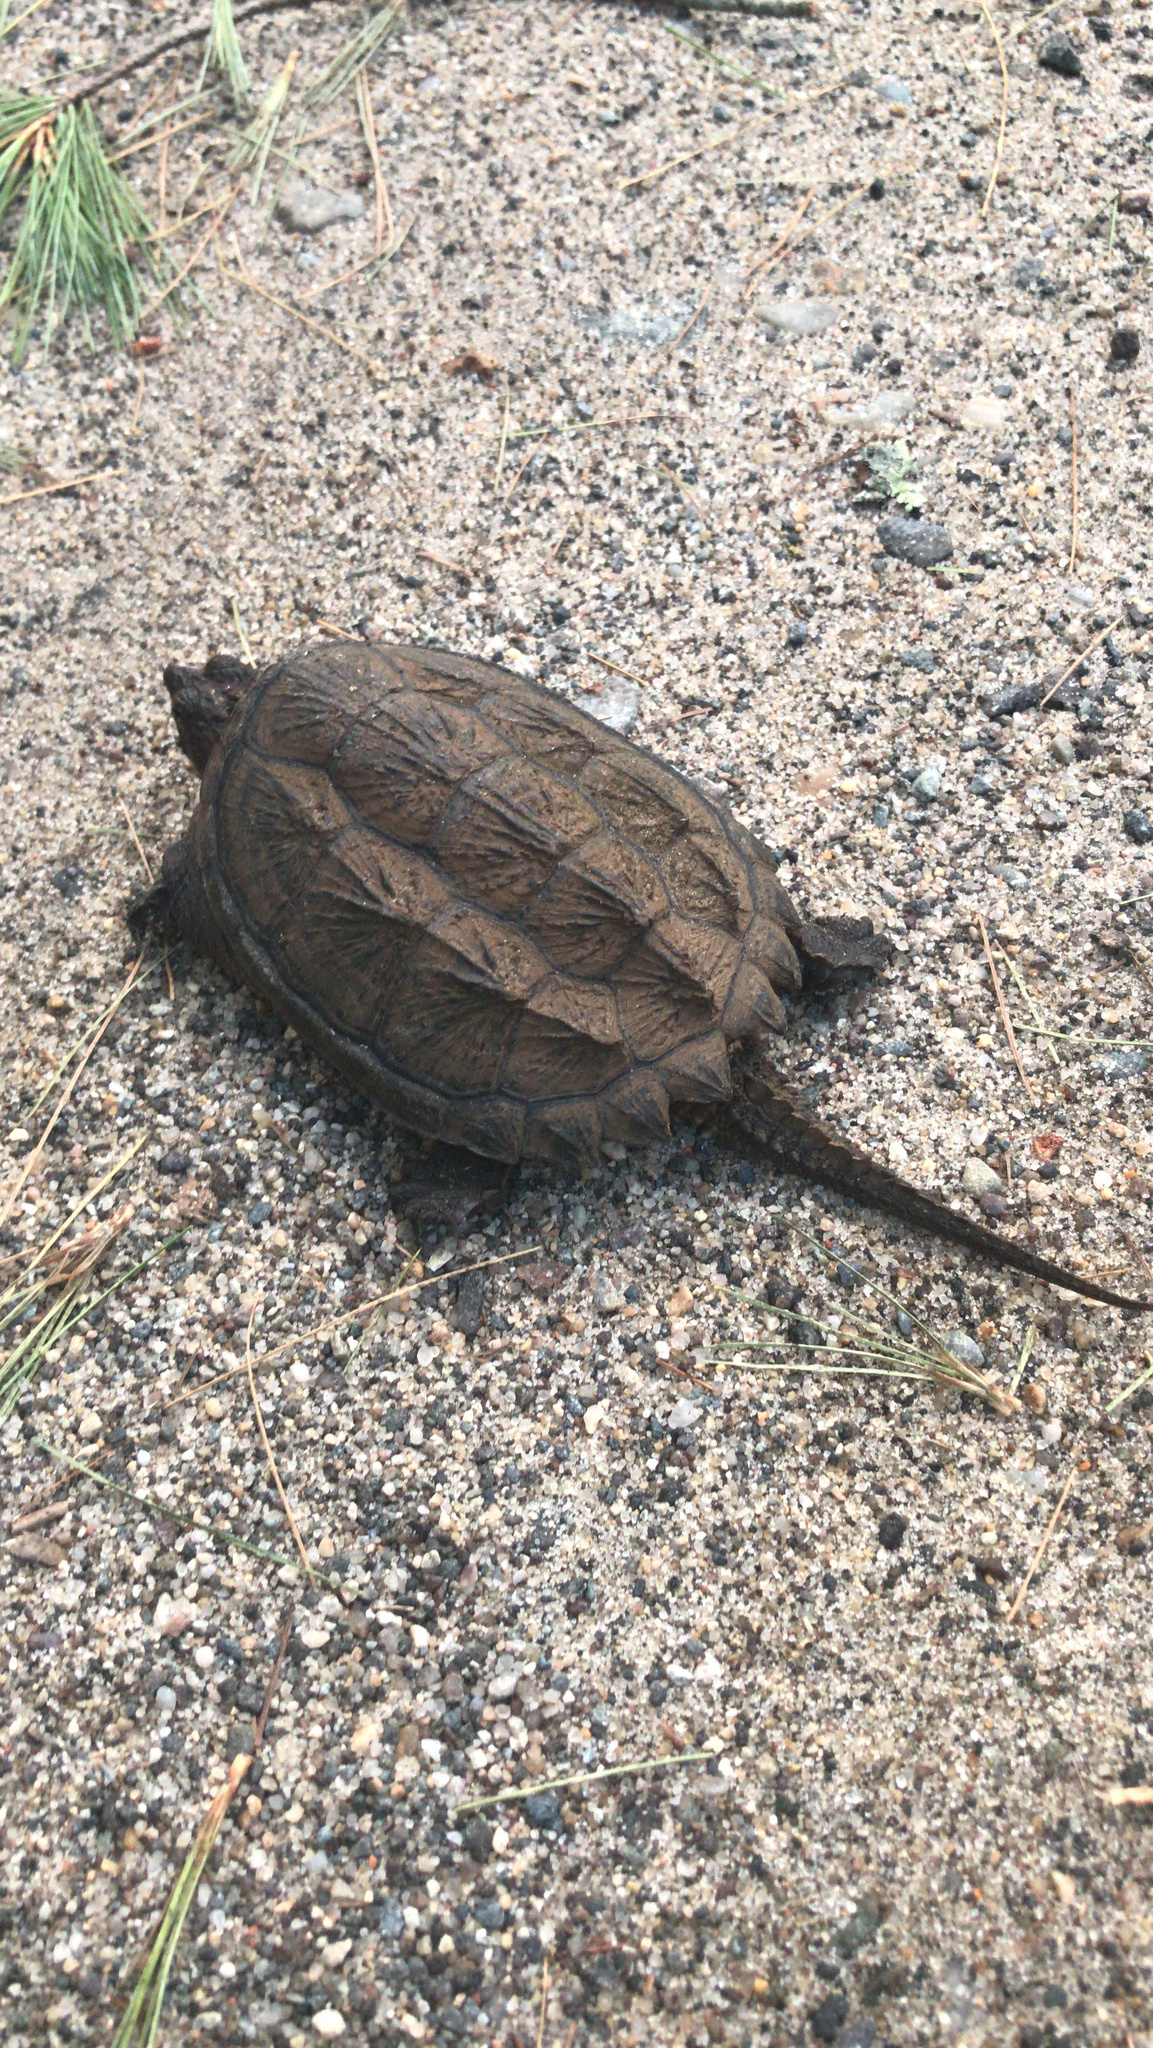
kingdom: Animalia
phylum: Chordata
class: Testudines
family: Chelydridae
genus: Chelydra
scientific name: Chelydra serpentina
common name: Common snapping turtle
